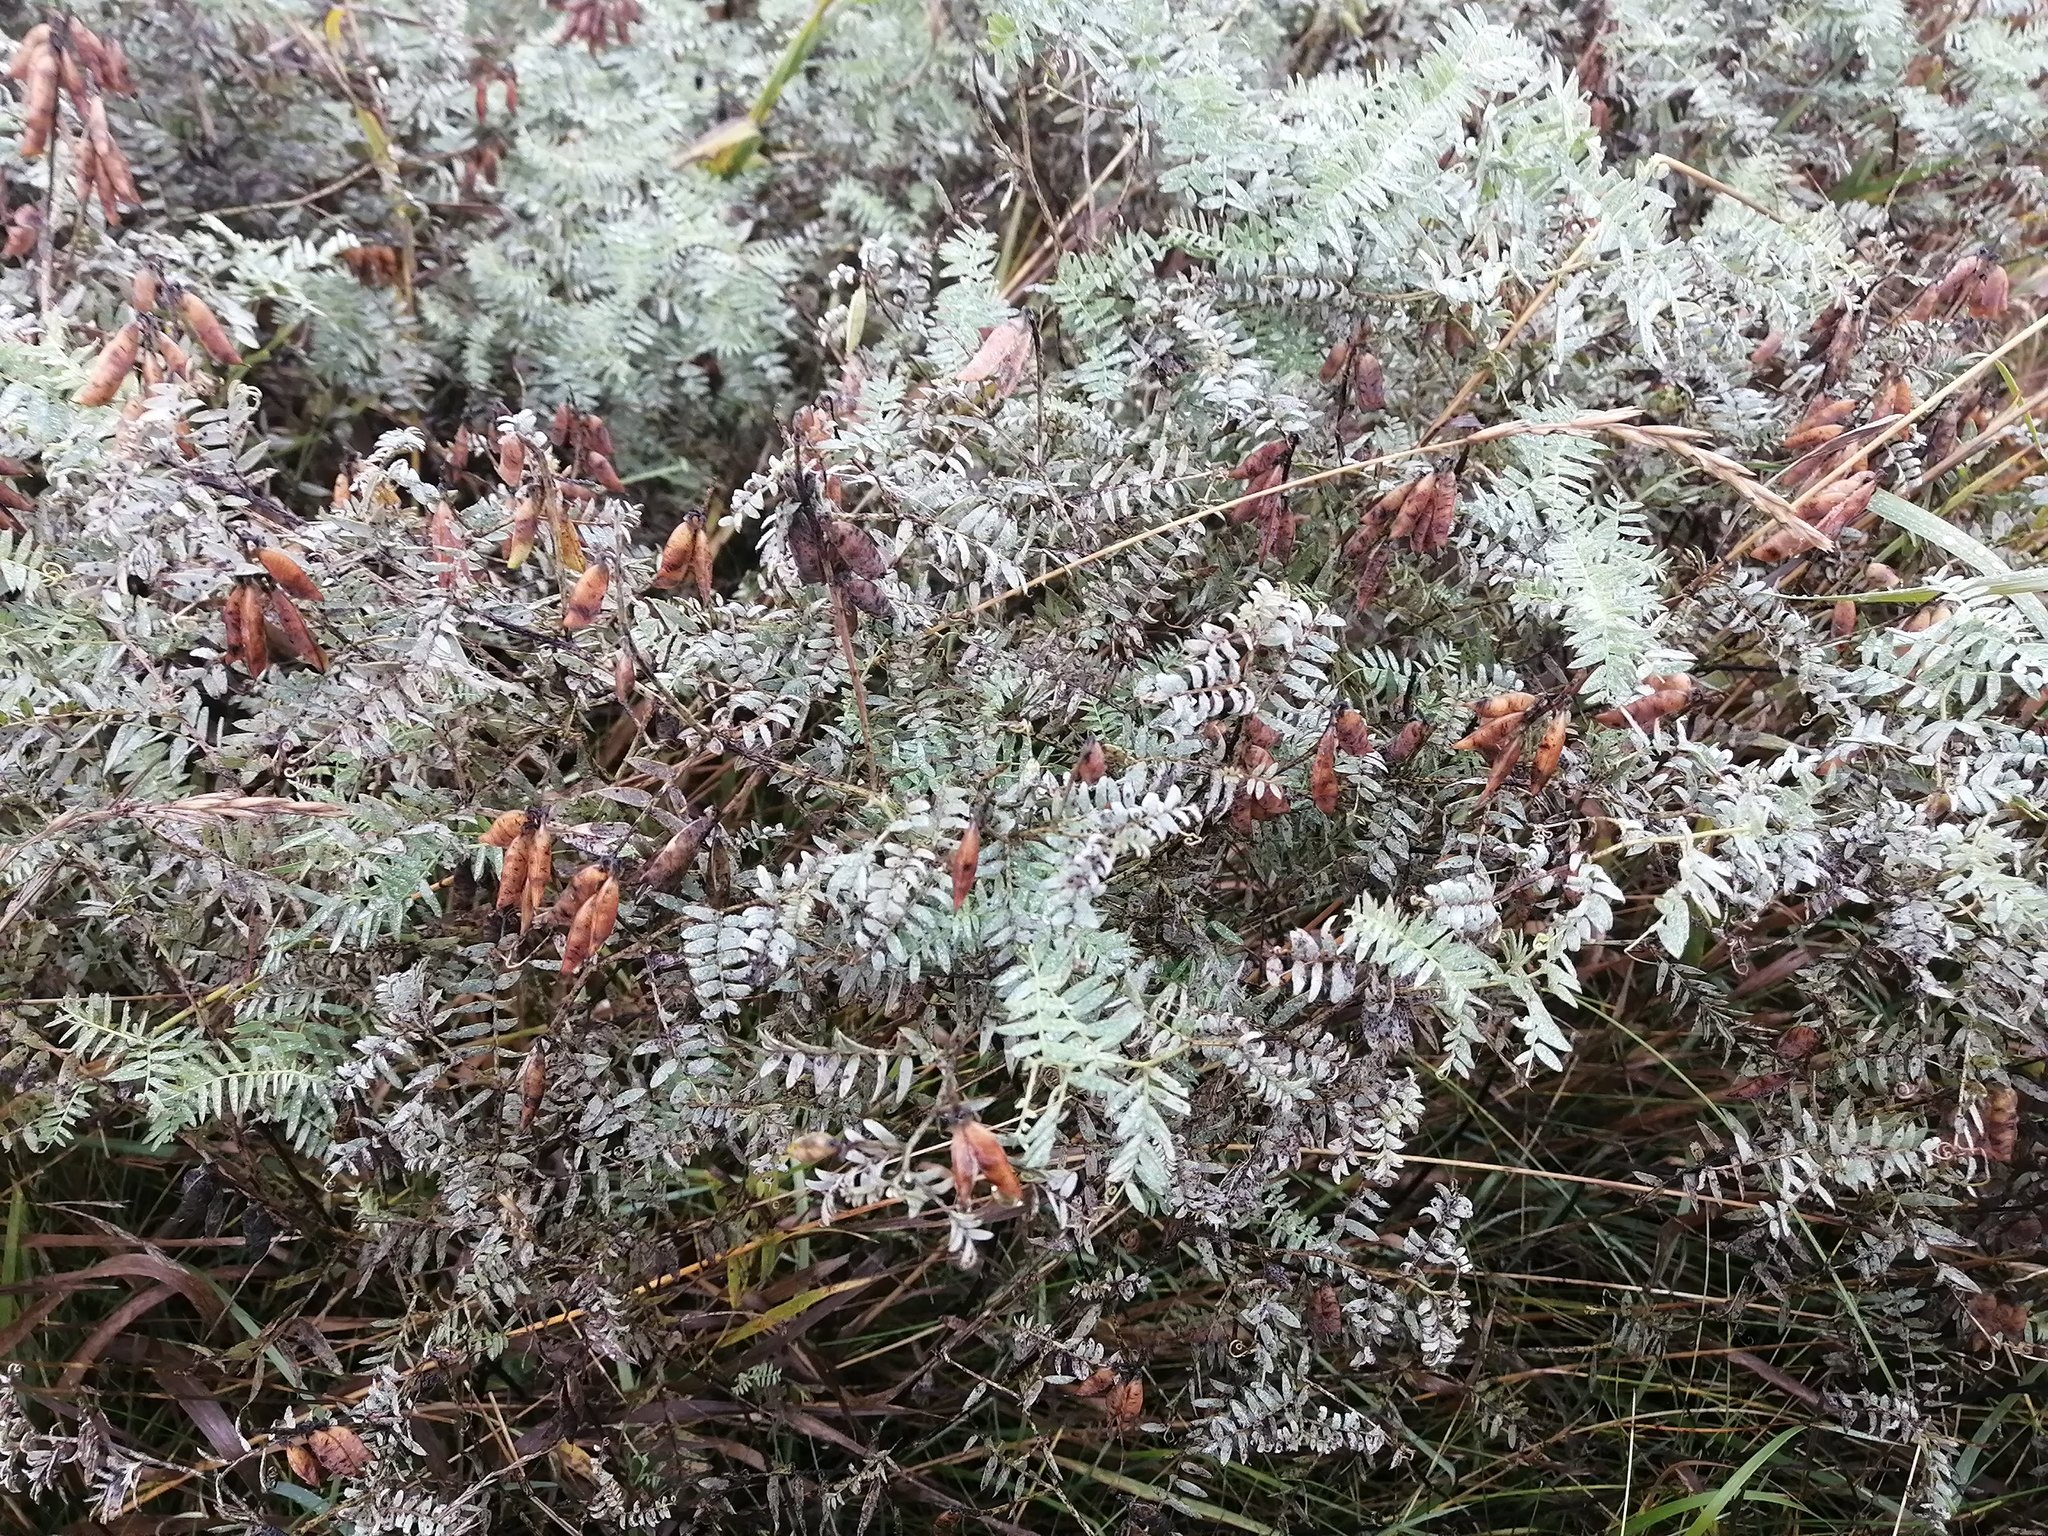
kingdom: Plantae
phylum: Tracheophyta
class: Magnoliopsida
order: Fabales
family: Fabaceae
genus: Vicia
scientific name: Vicia cracca
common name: Bird vetch
